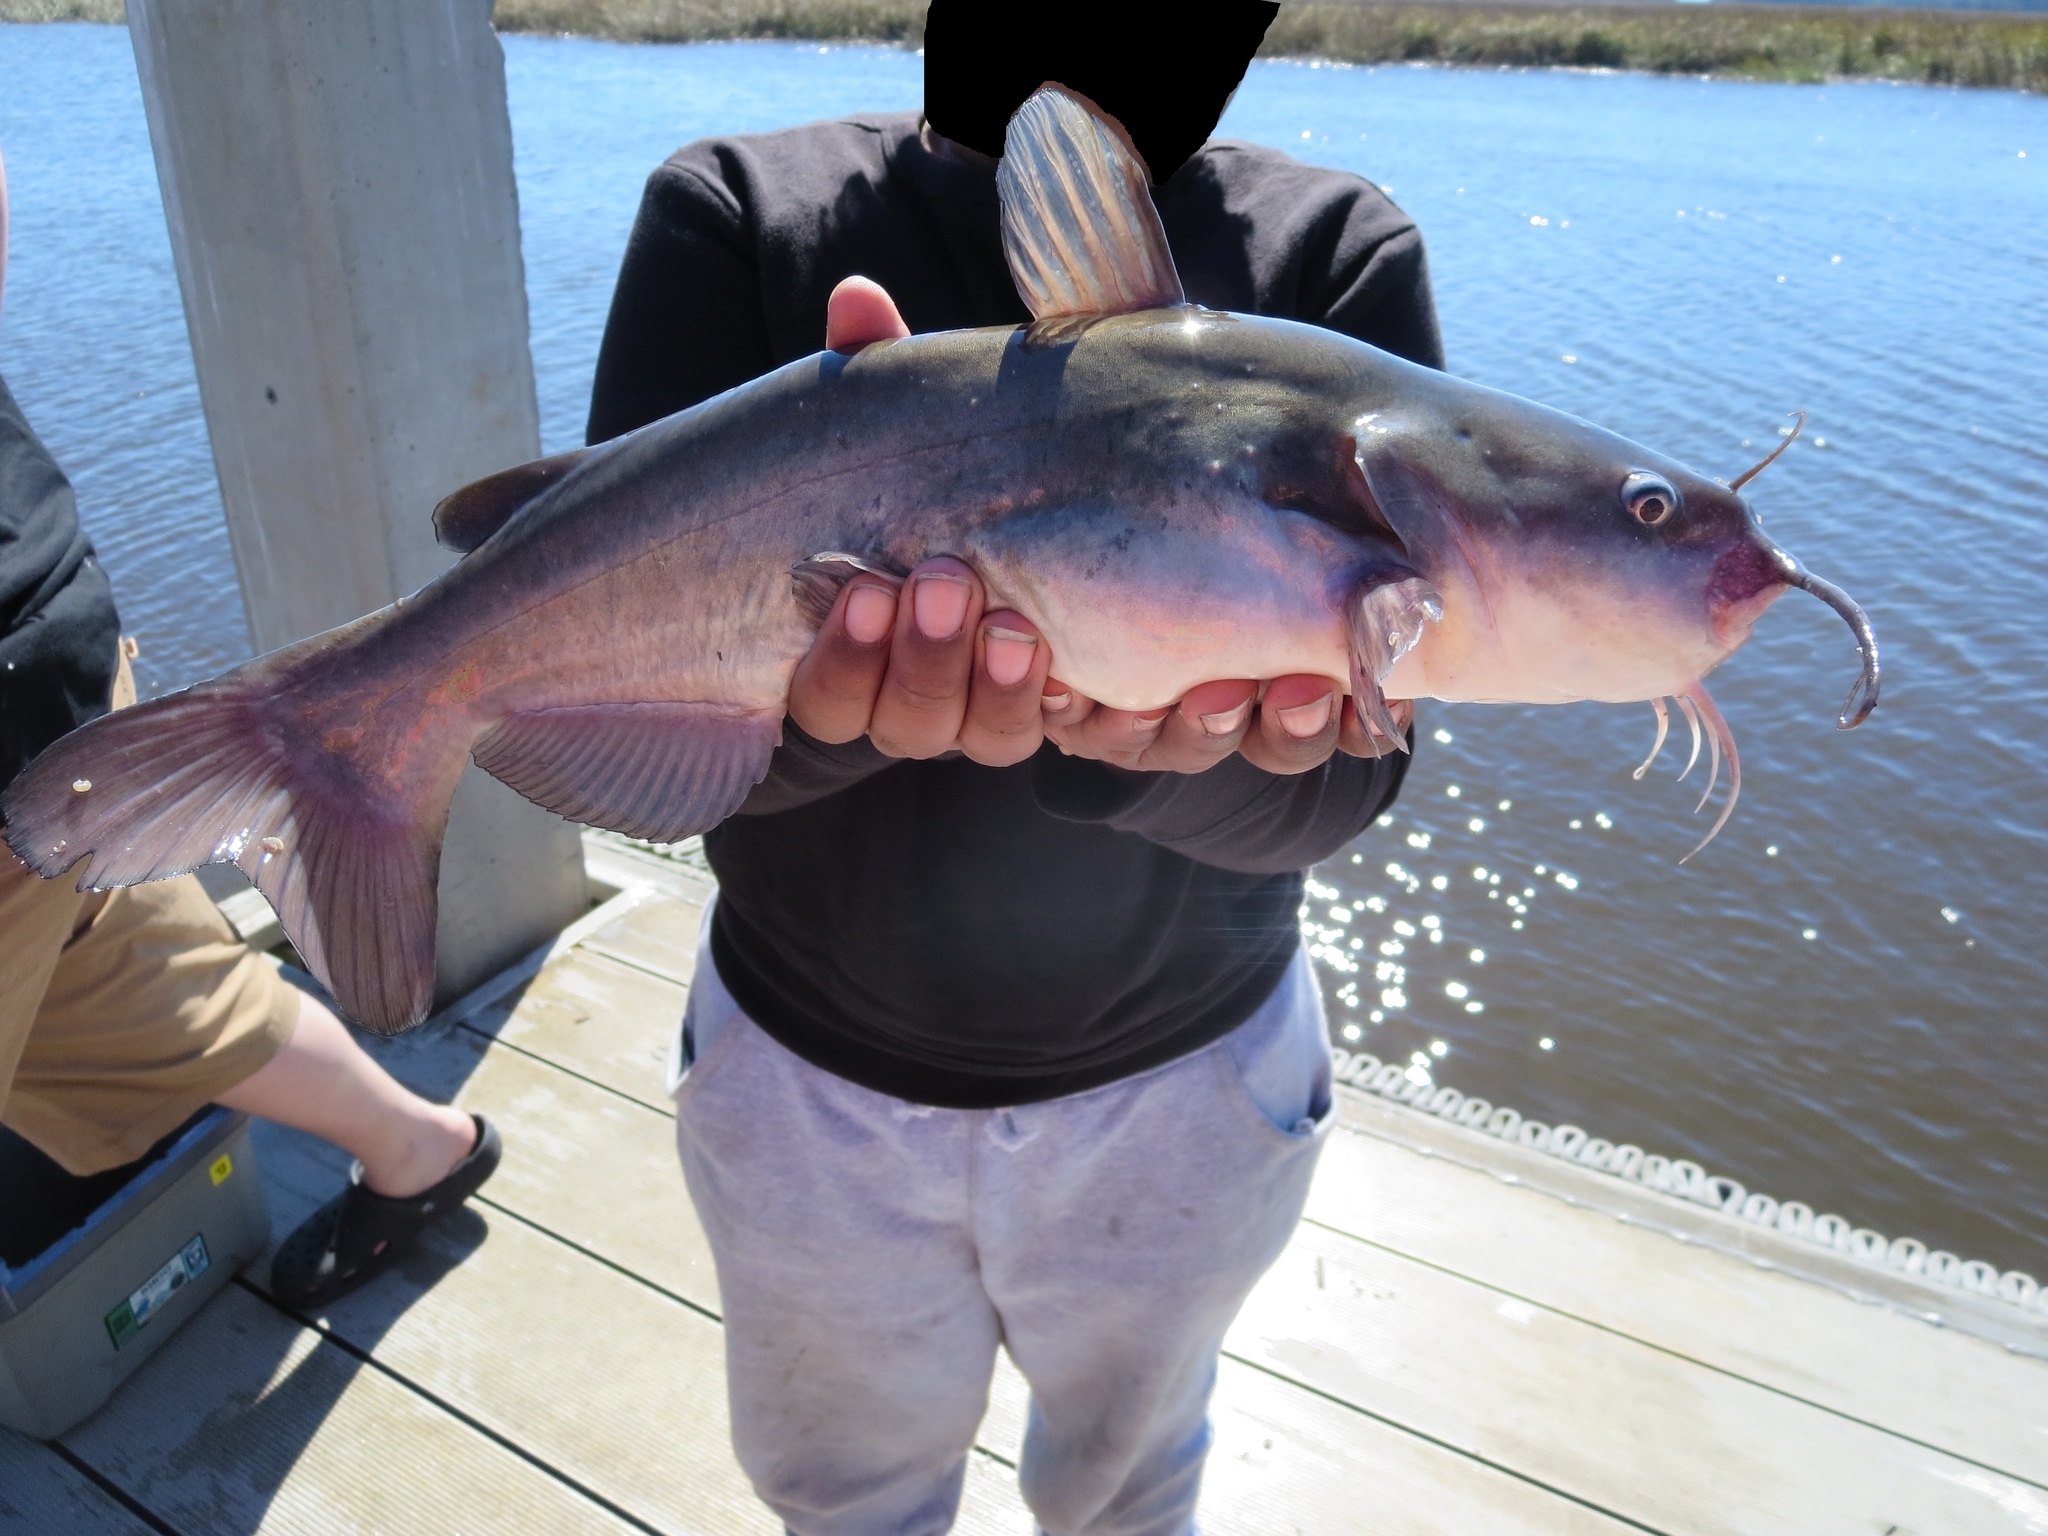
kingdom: Animalia
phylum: Chordata
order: Siluriformes
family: Ictaluridae
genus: Ameiurus
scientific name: Ameiurus catus
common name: White catfish
